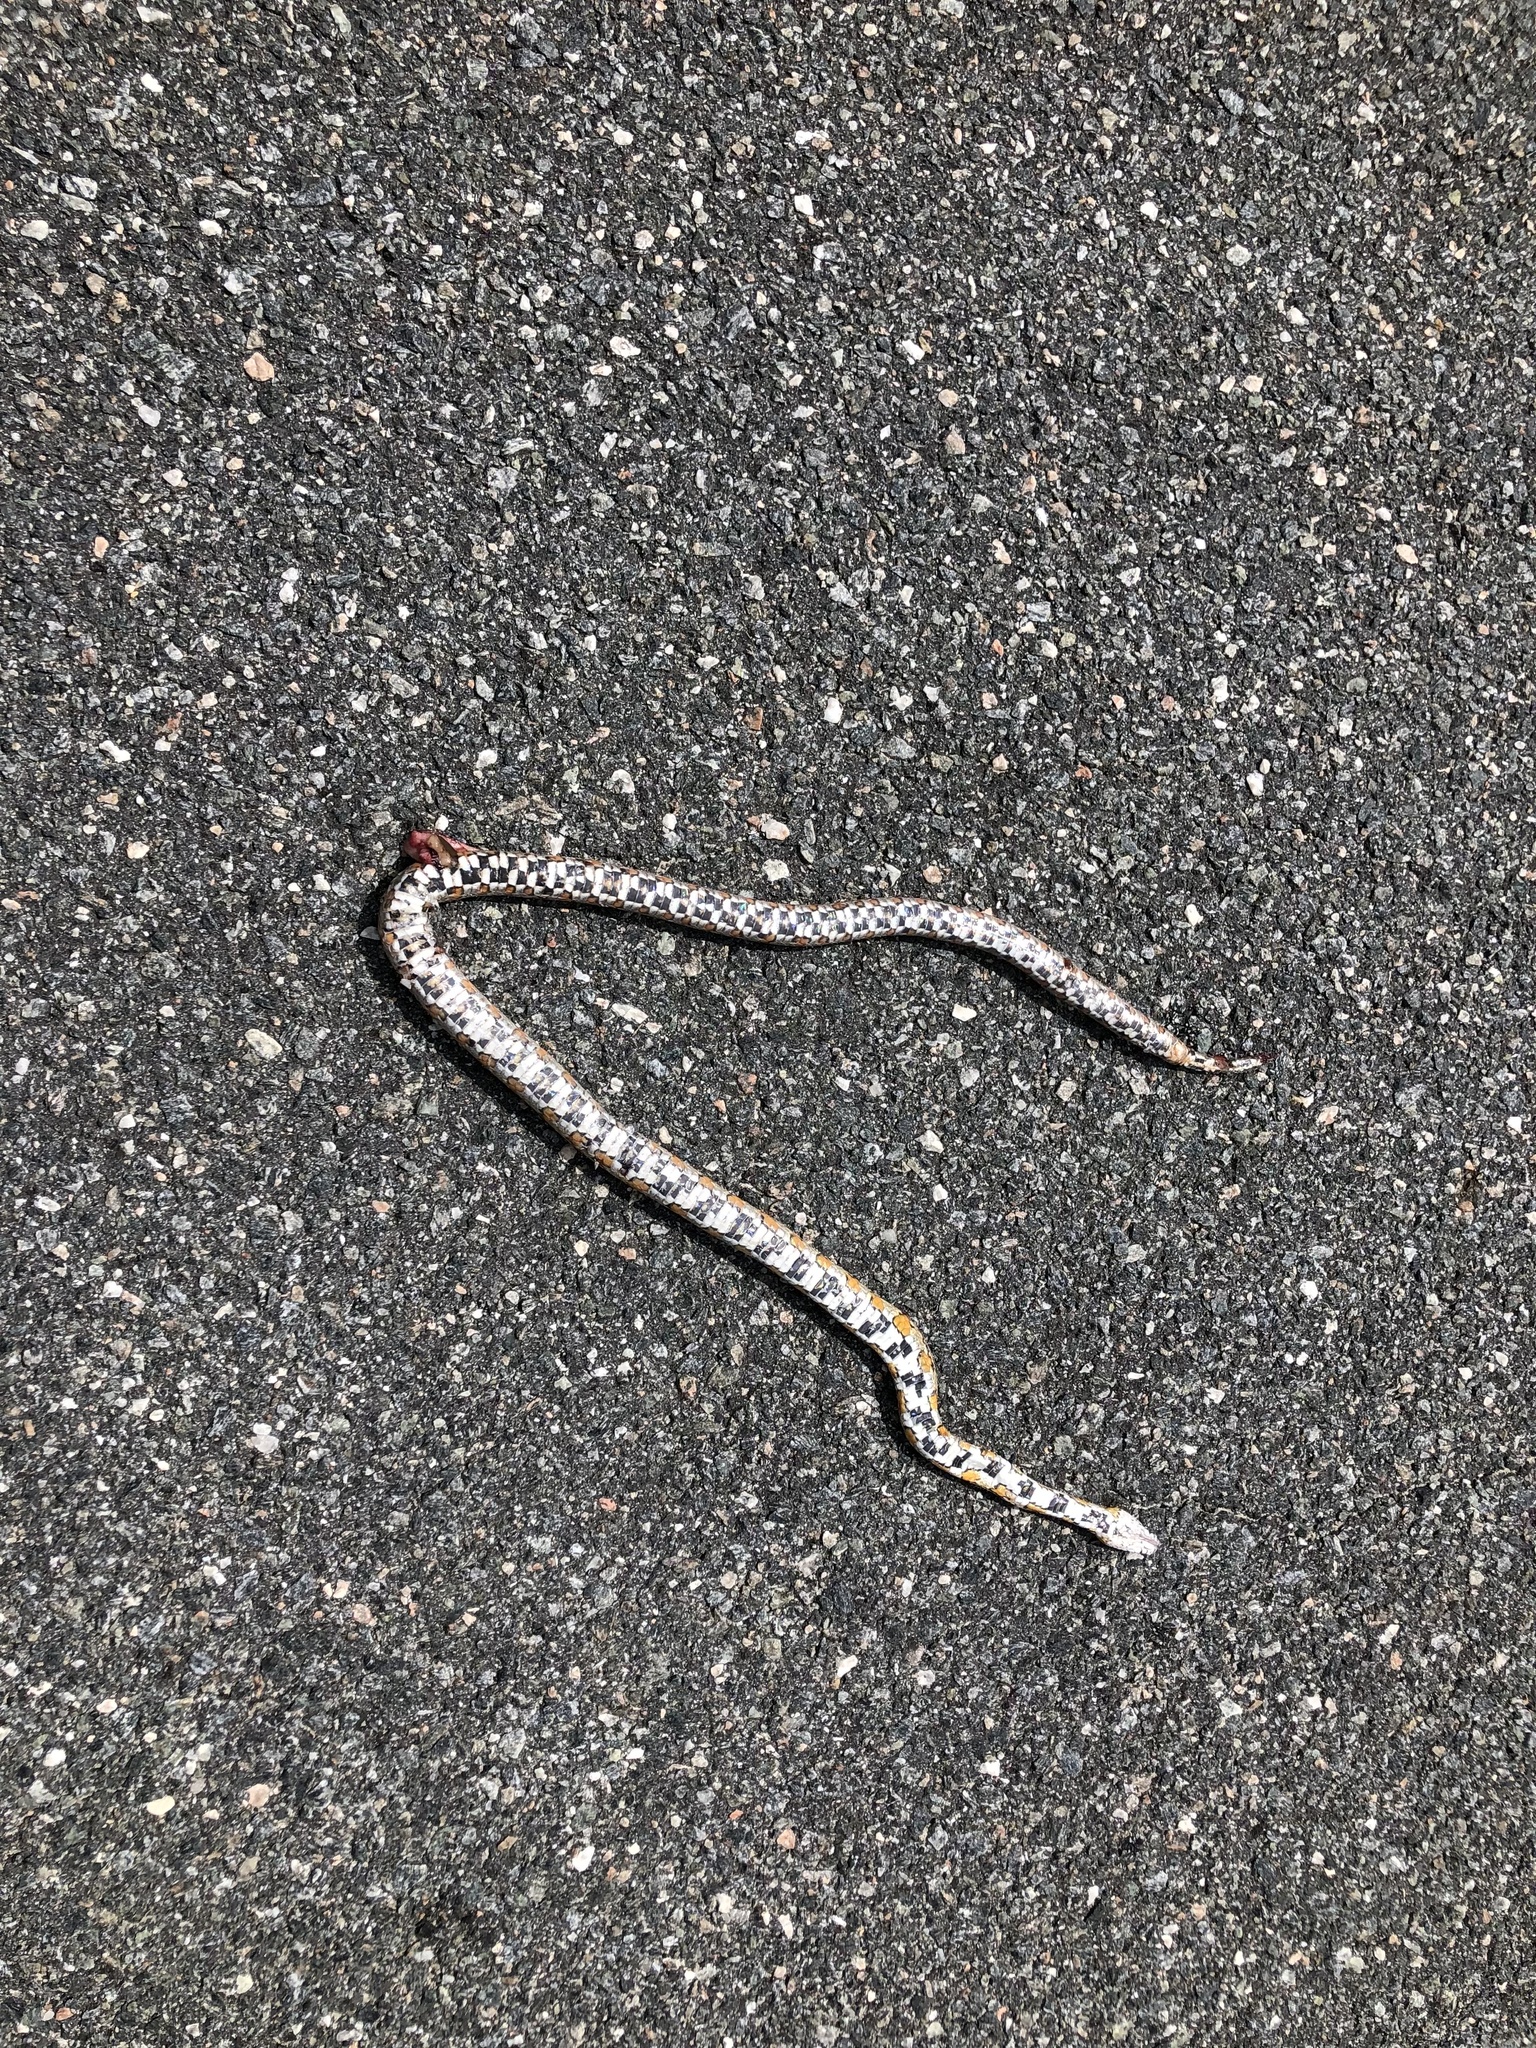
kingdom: Animalia
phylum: Chordata
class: Squamata
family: Colubridae
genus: Pantherophis
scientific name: Pantherophis guttatus
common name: Red cornsnake
